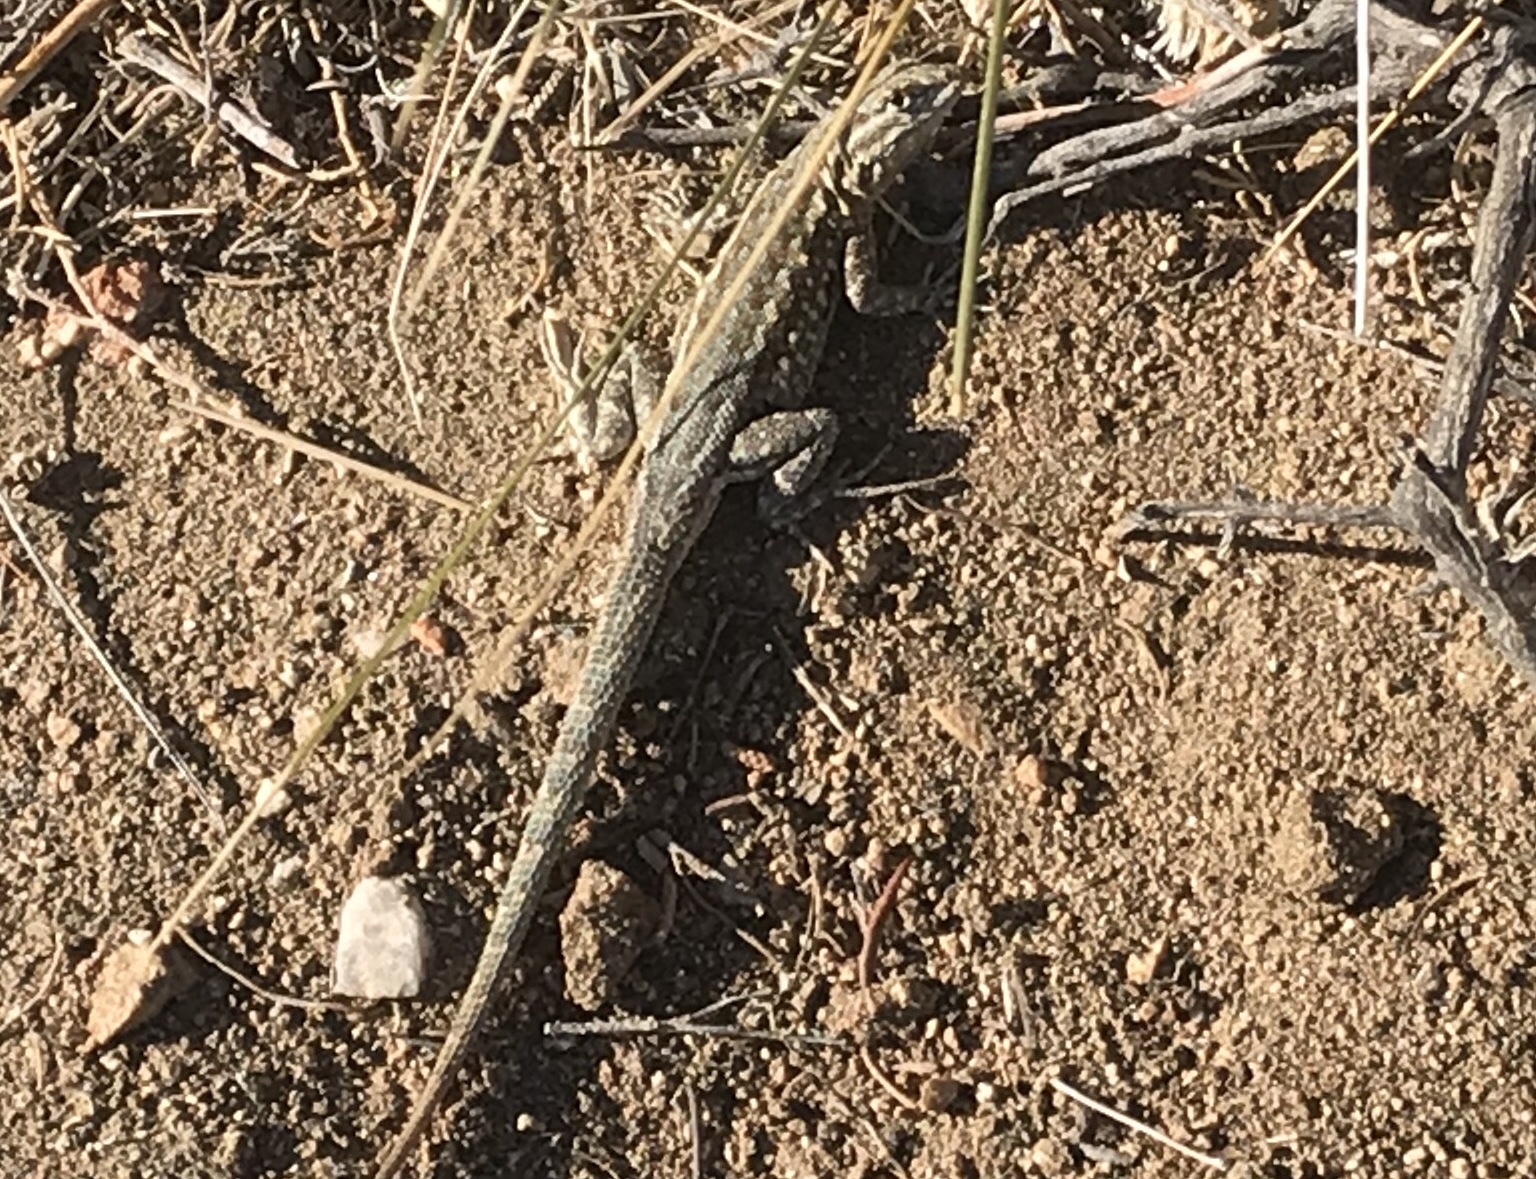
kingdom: Animalia
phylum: Chordata
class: Squamata
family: Phrynosomatidae
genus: Uta
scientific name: Uta stansburiana
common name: Side-blotched lizard
